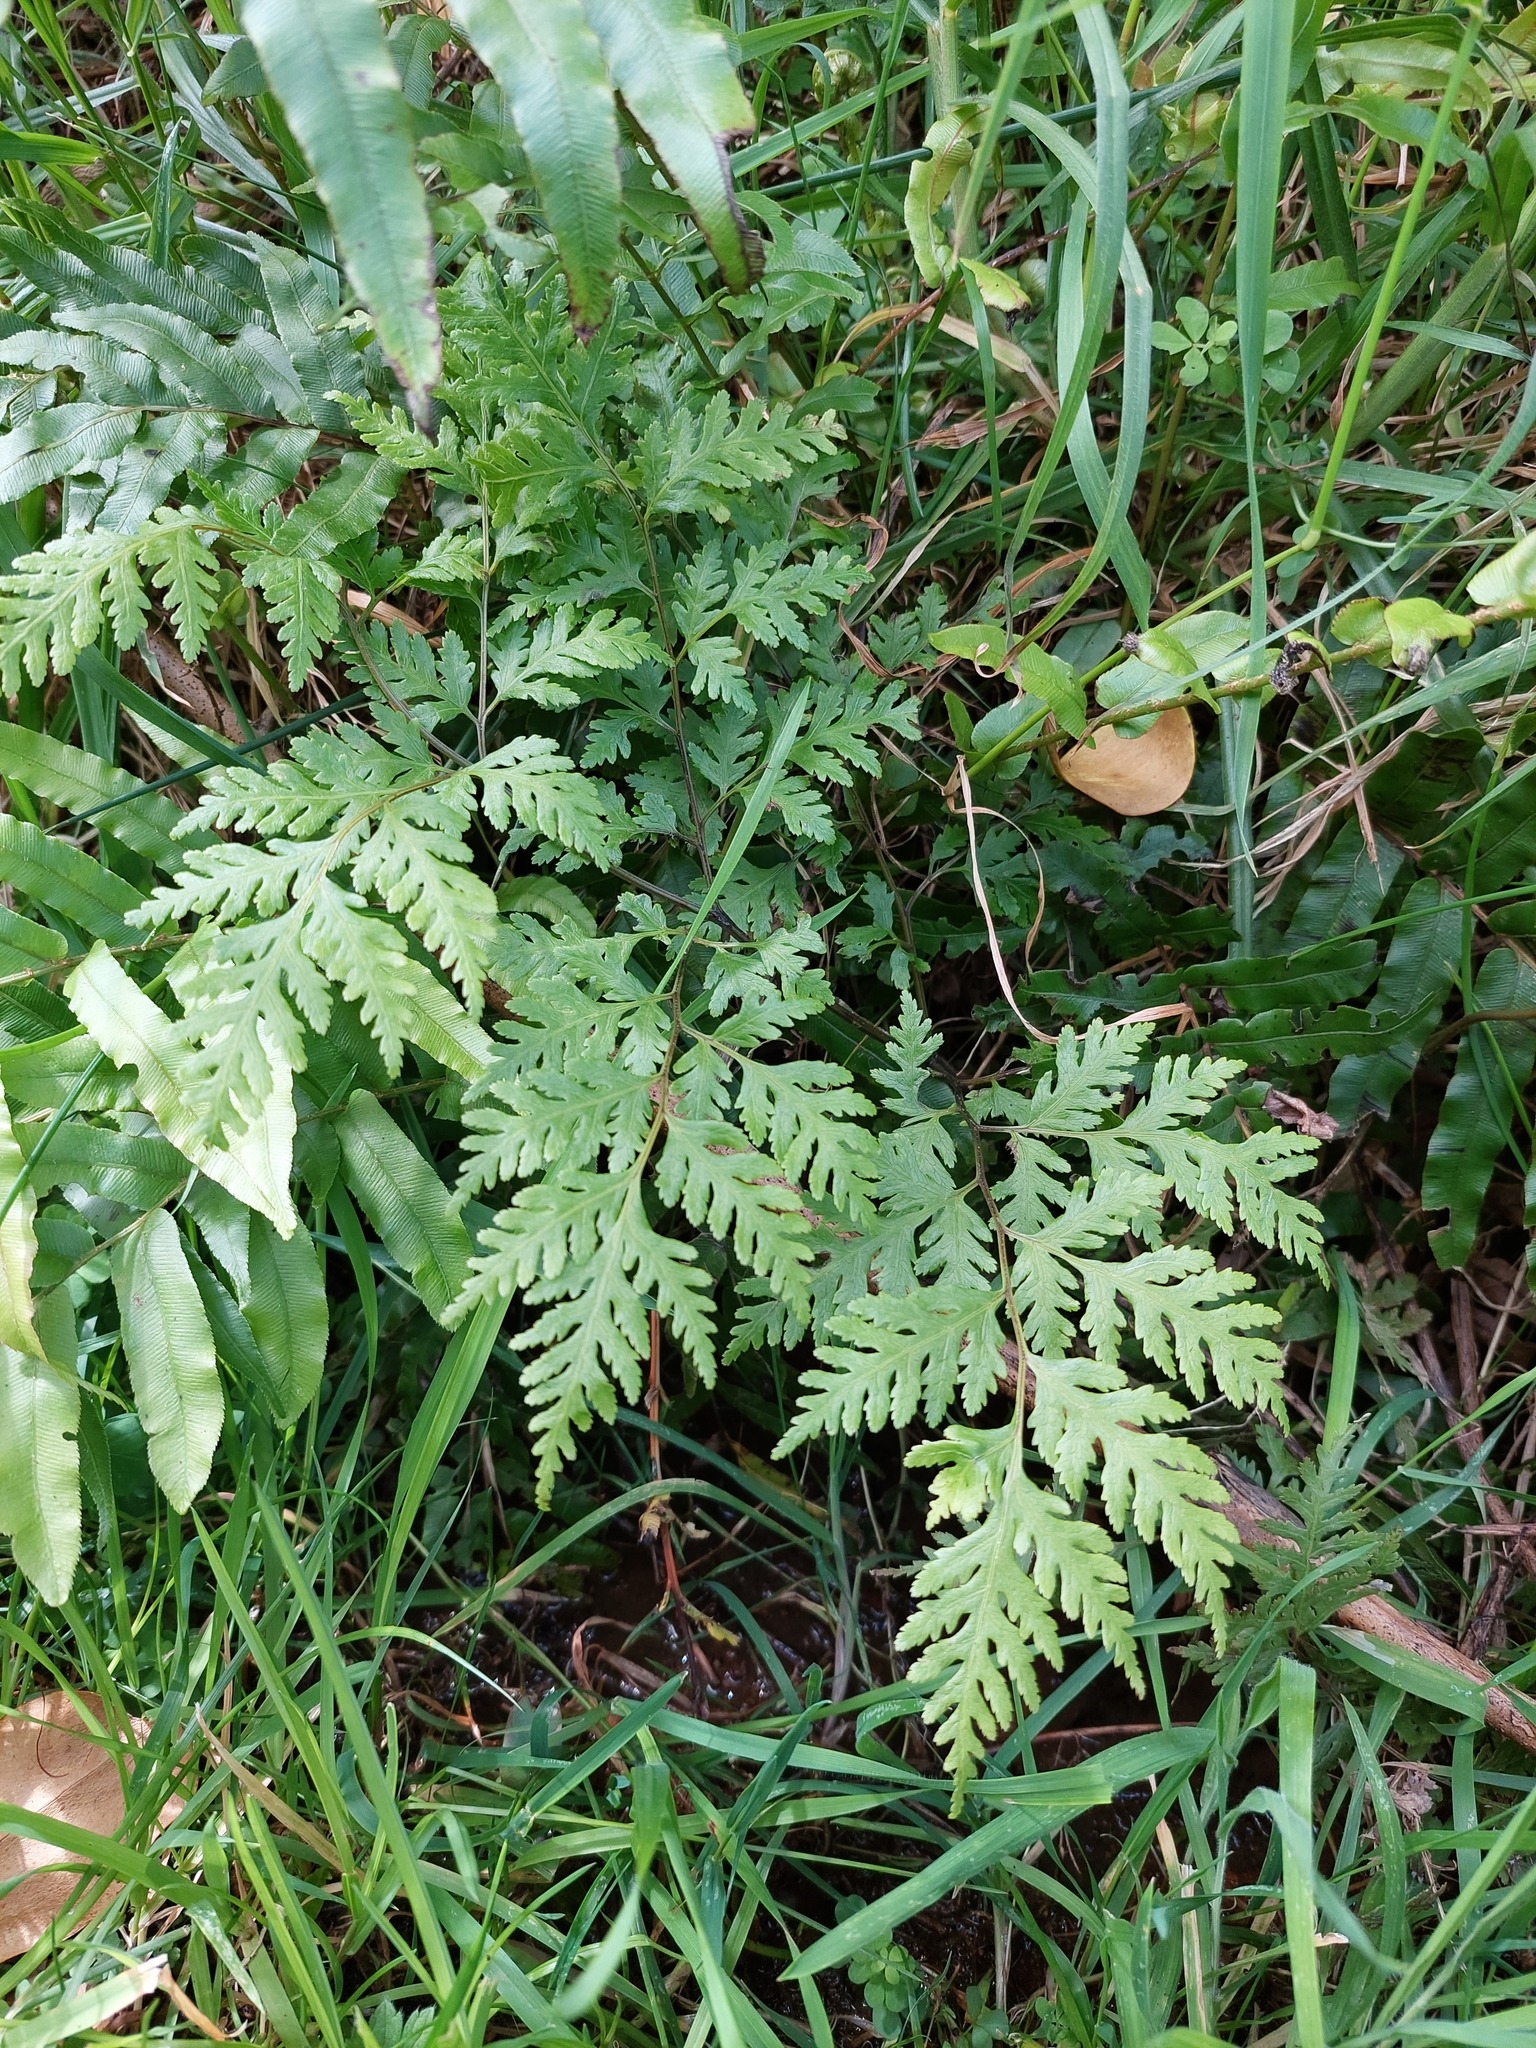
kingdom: Plantae
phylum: Tracheophyta
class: Polypodiopsida
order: Polypodiales
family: Pteridaceae
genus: Pteris
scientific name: Pteris macilenta
